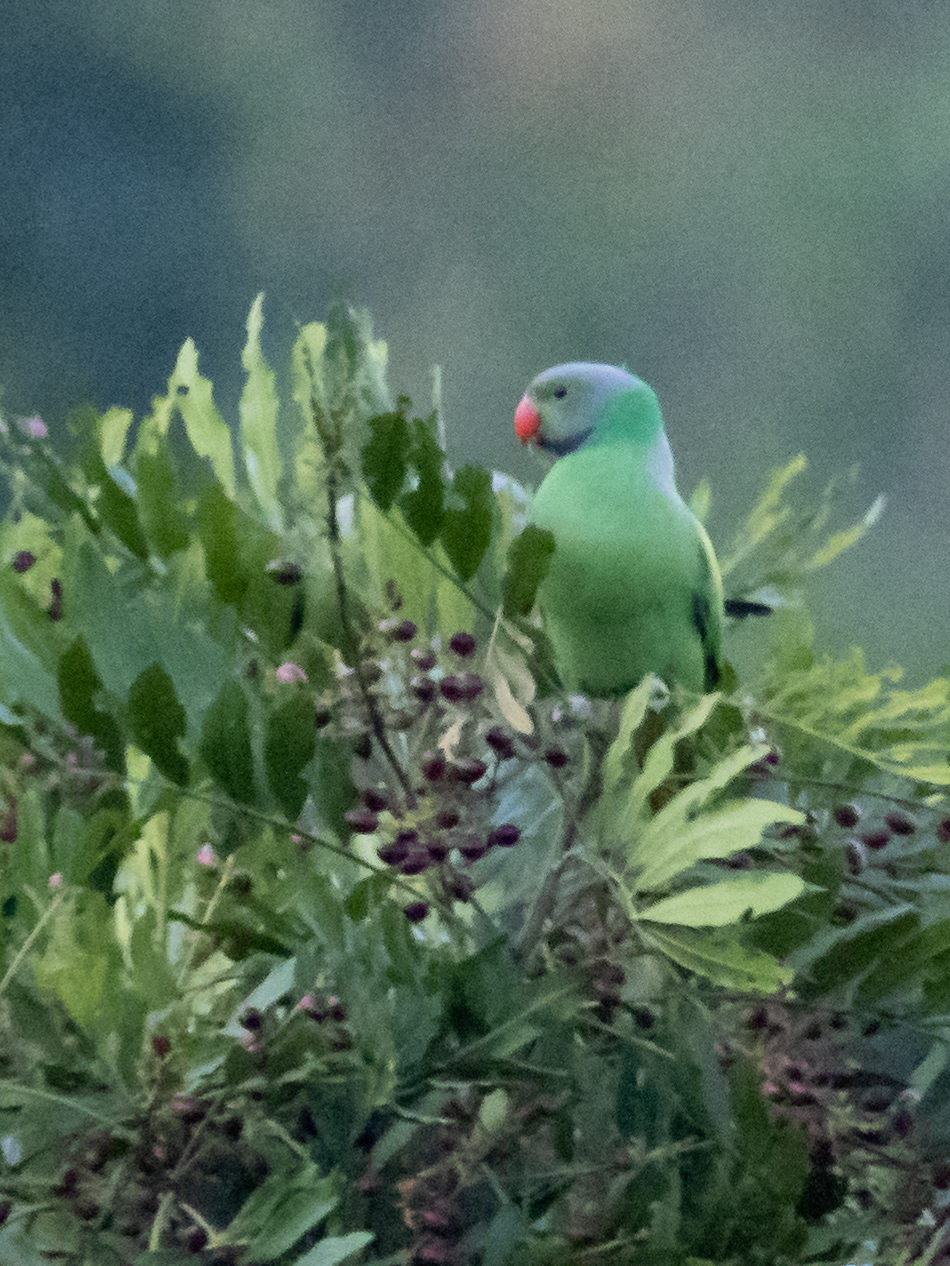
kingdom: Animalia
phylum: Chordata
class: Aves
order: Psittaciformes
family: Psittacidae
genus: Psittacula
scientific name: Psittacula calthrapae
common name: Layard's parakeet
